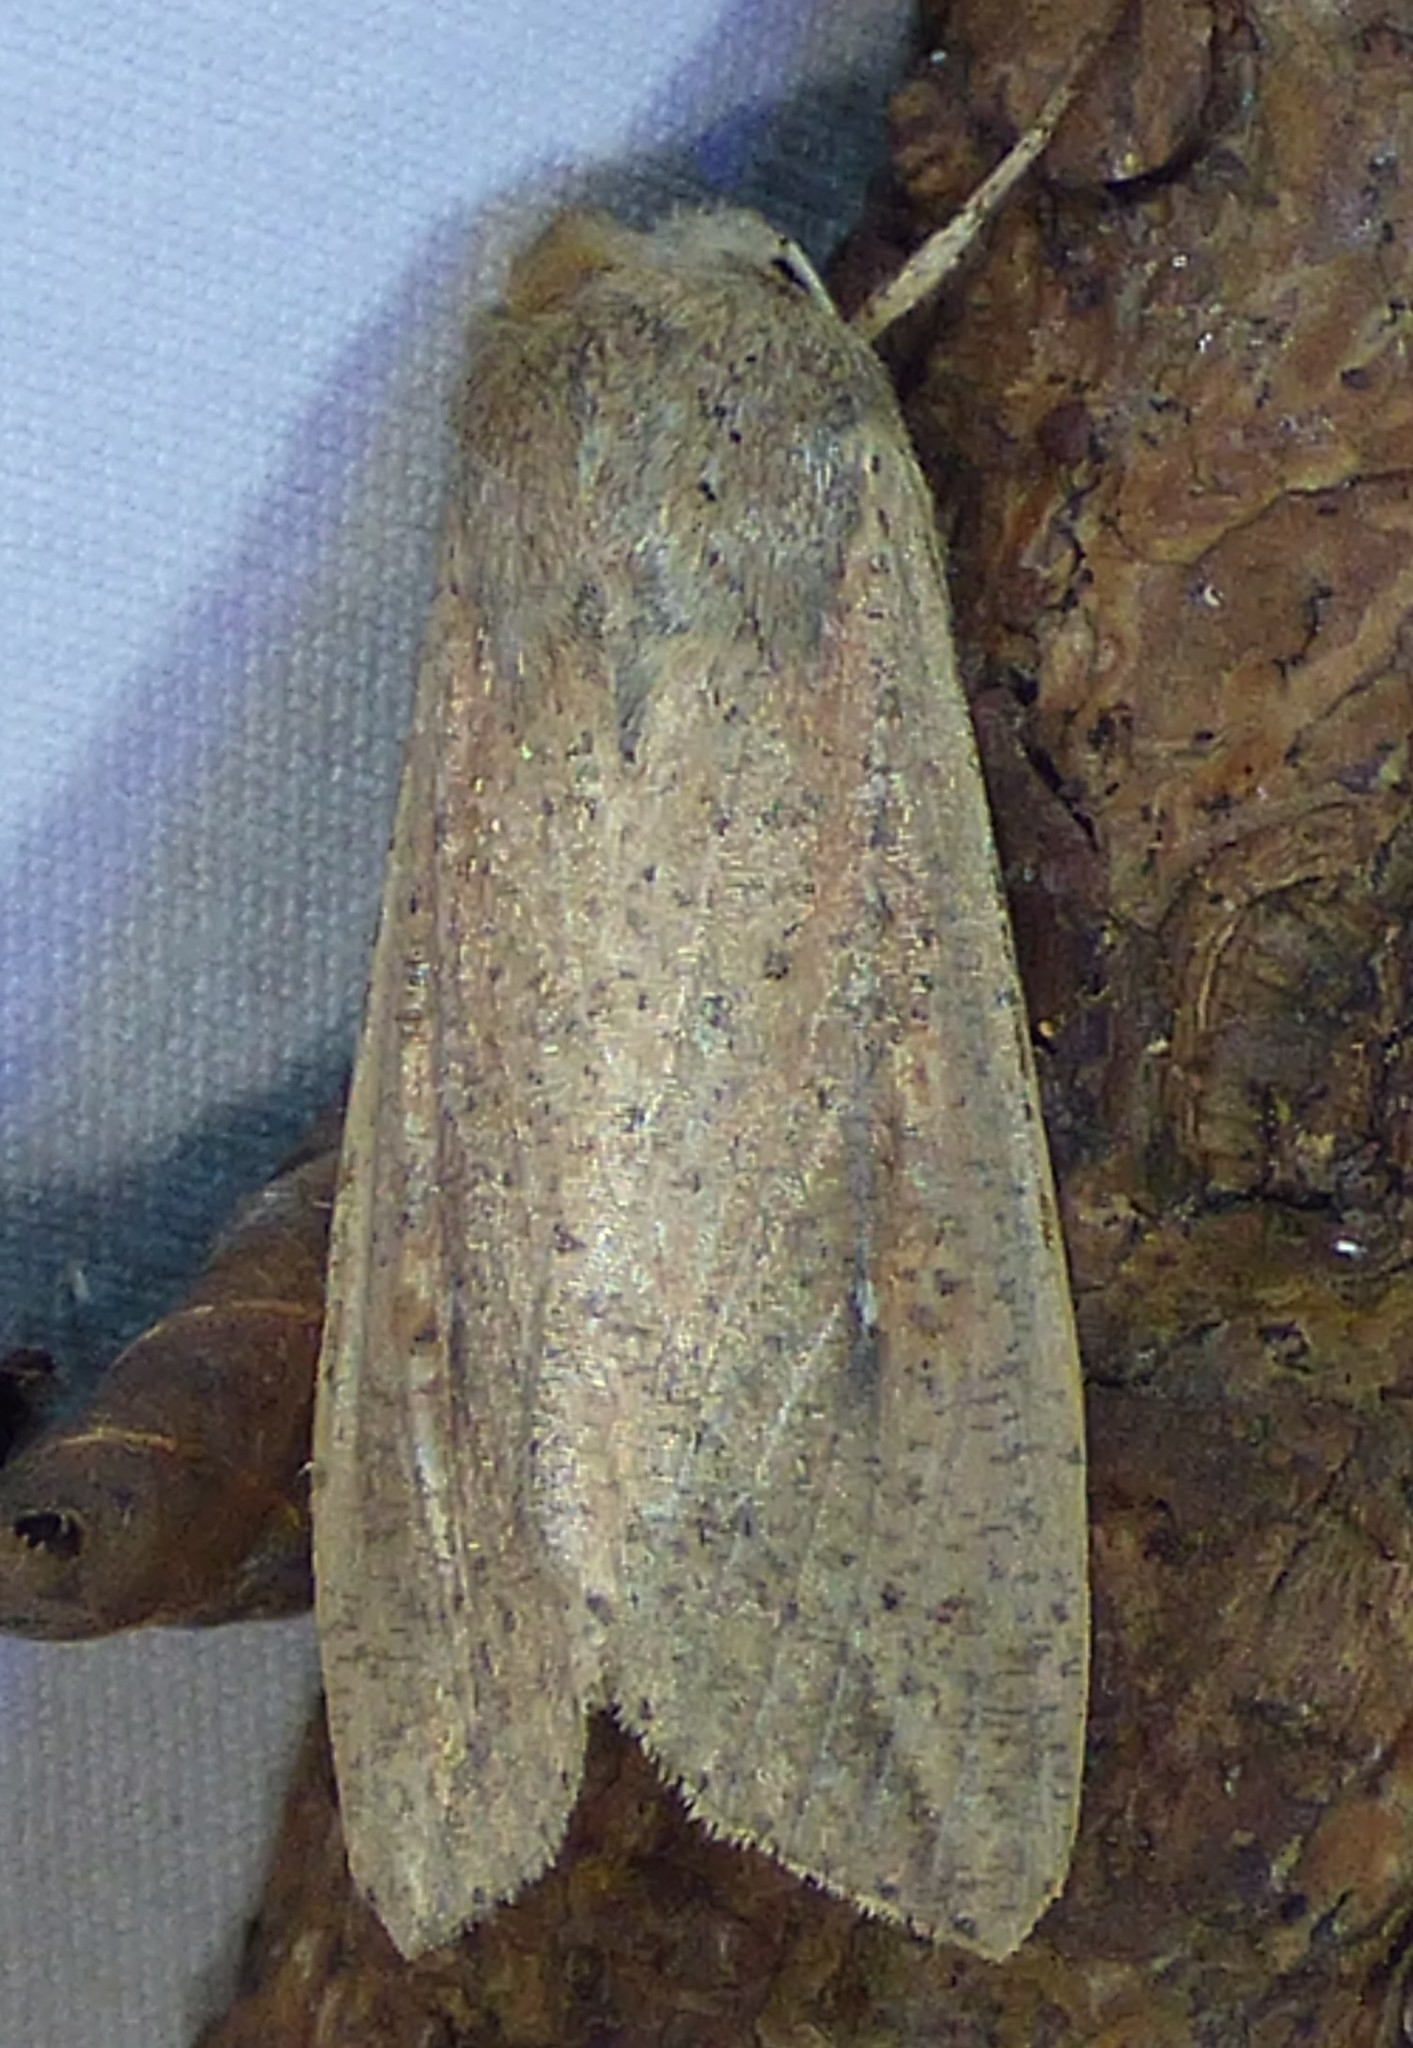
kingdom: Animalia
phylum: Arthropoda
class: Insecta
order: Lepidoptera
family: Noctuidae
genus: Mythimna
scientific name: Mythimna unipuncta
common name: White-speck
